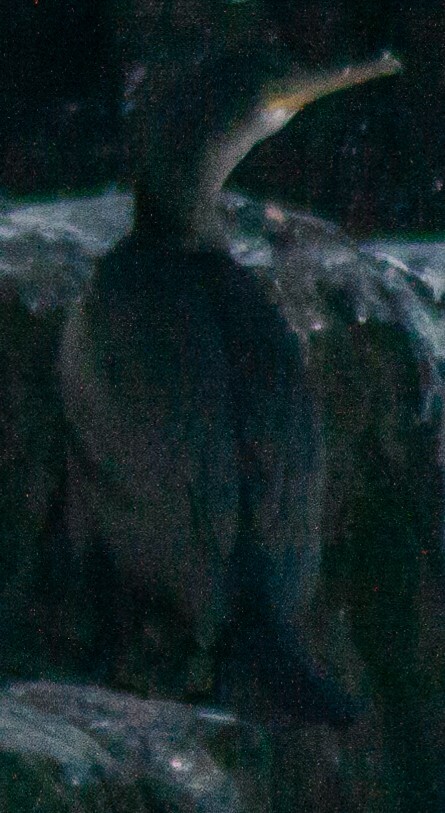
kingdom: Animalia
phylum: Chordata
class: Aves
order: Suliformes
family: Phalacrocoracidae
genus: Phalacrocorax
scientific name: Phalacrocorax aristotelis
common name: European shag
